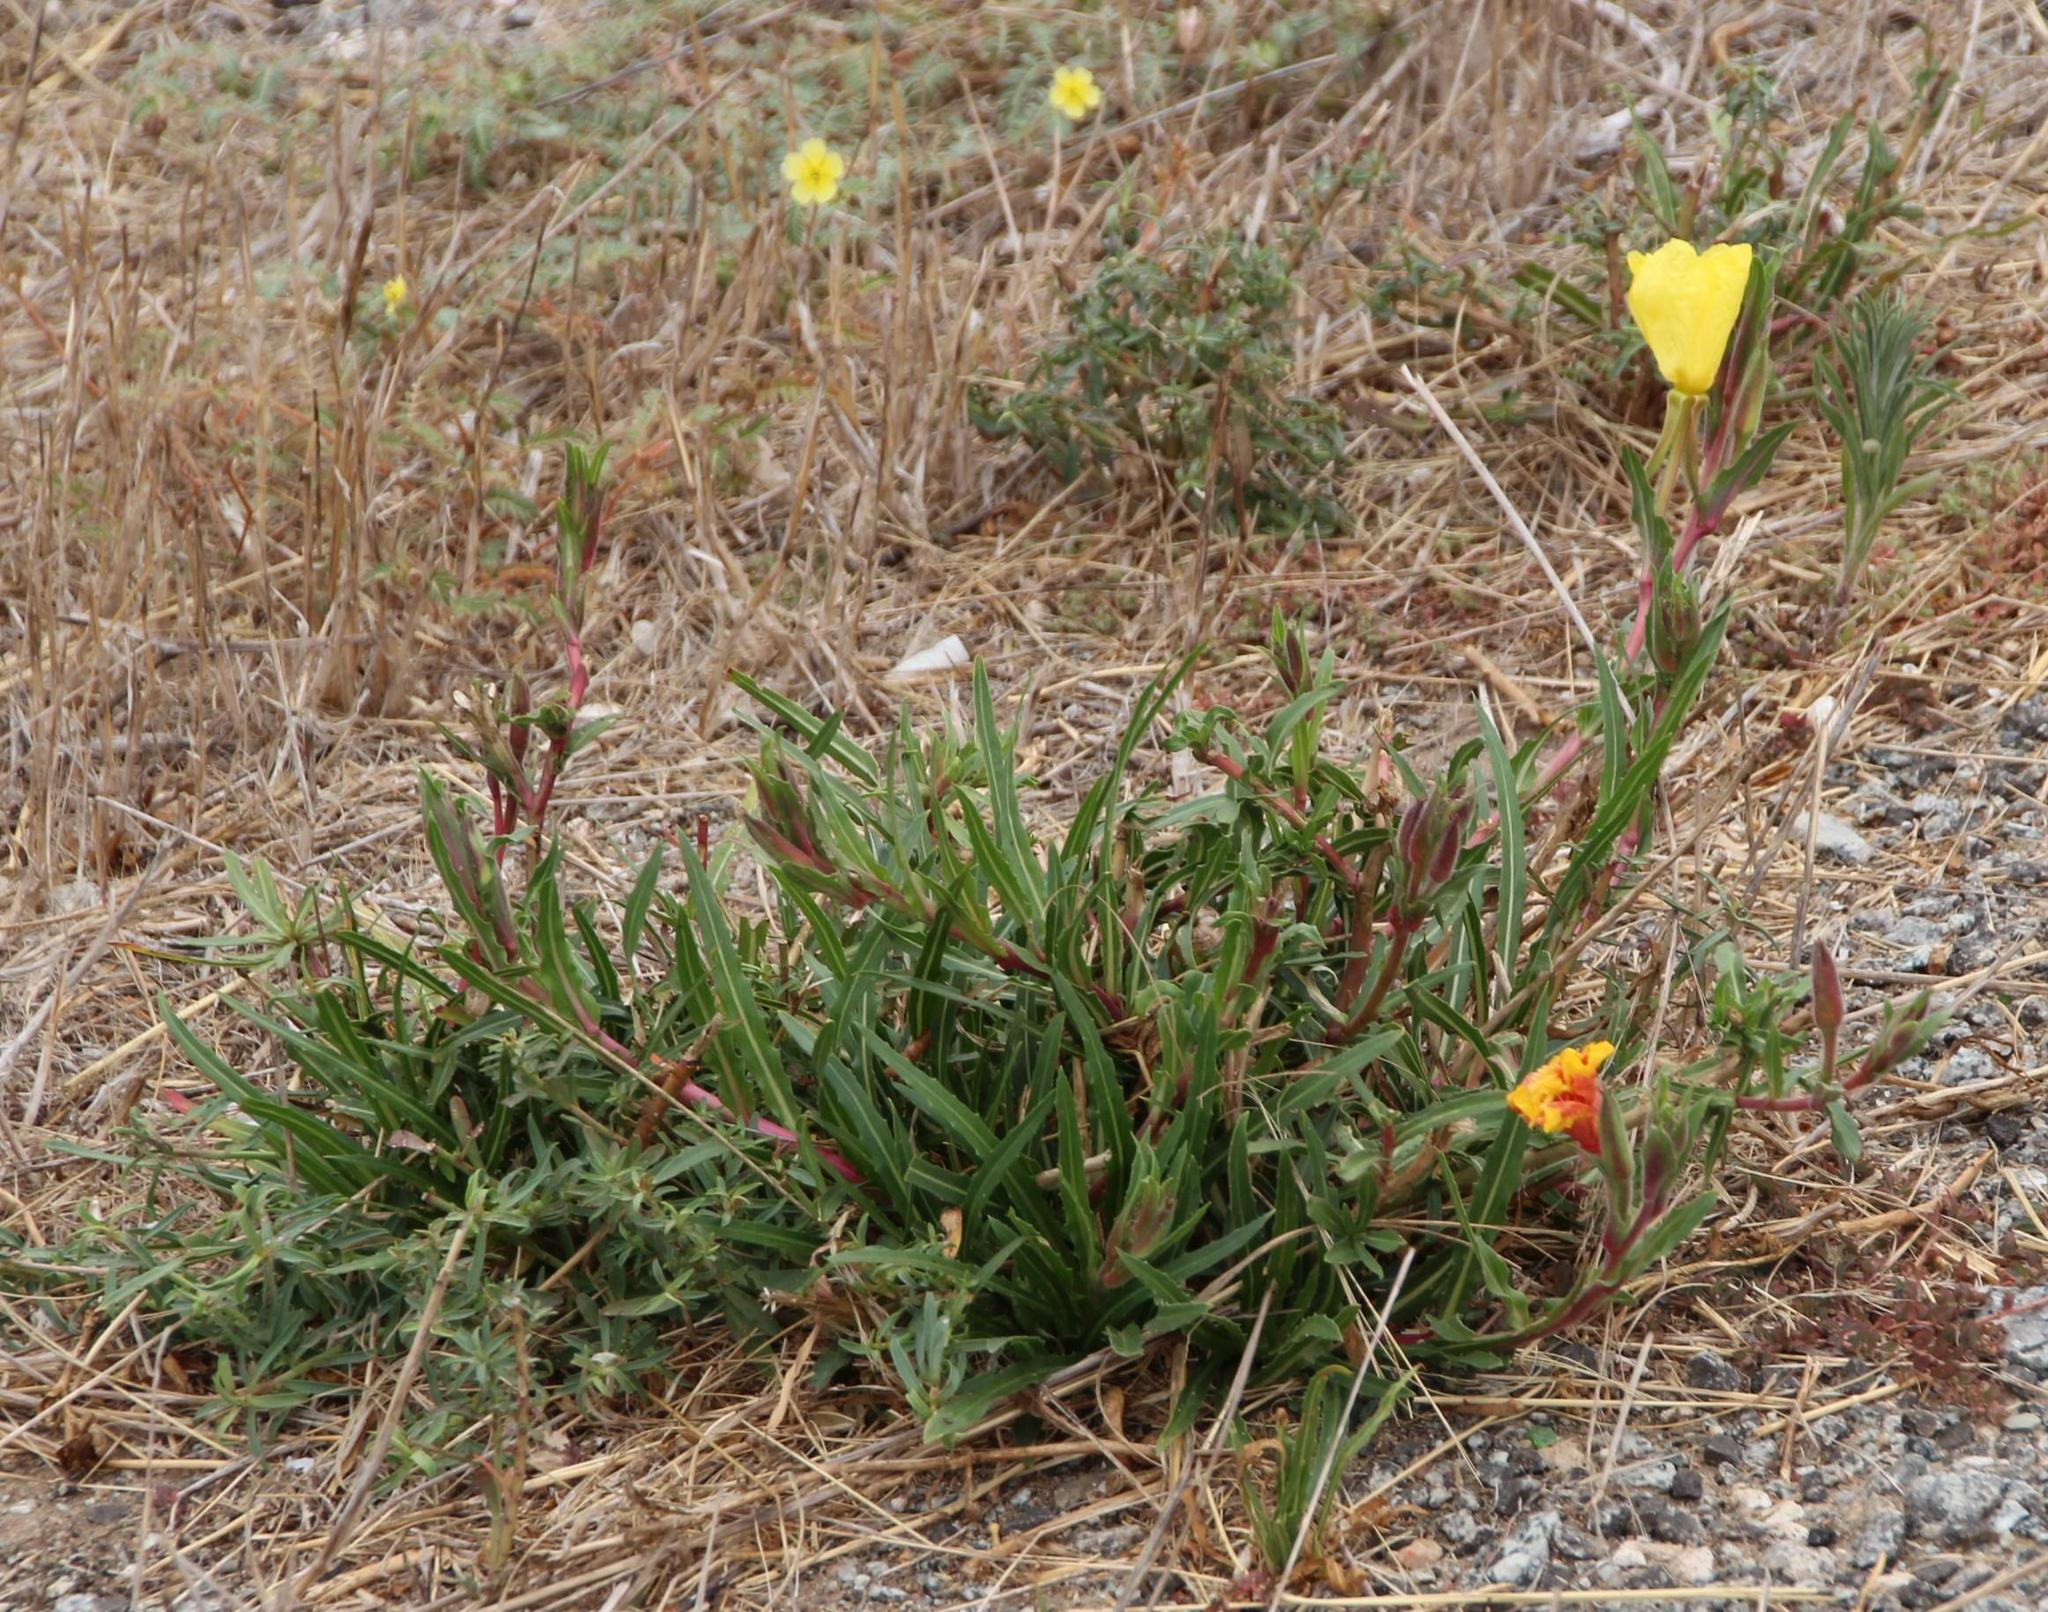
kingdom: Plantae
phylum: Tracheophyta
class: Magnoliopsida
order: Myrtales
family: Onagraceae
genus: Oenothera
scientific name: Oenothera stricta
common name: Fragrant evening-primrose
